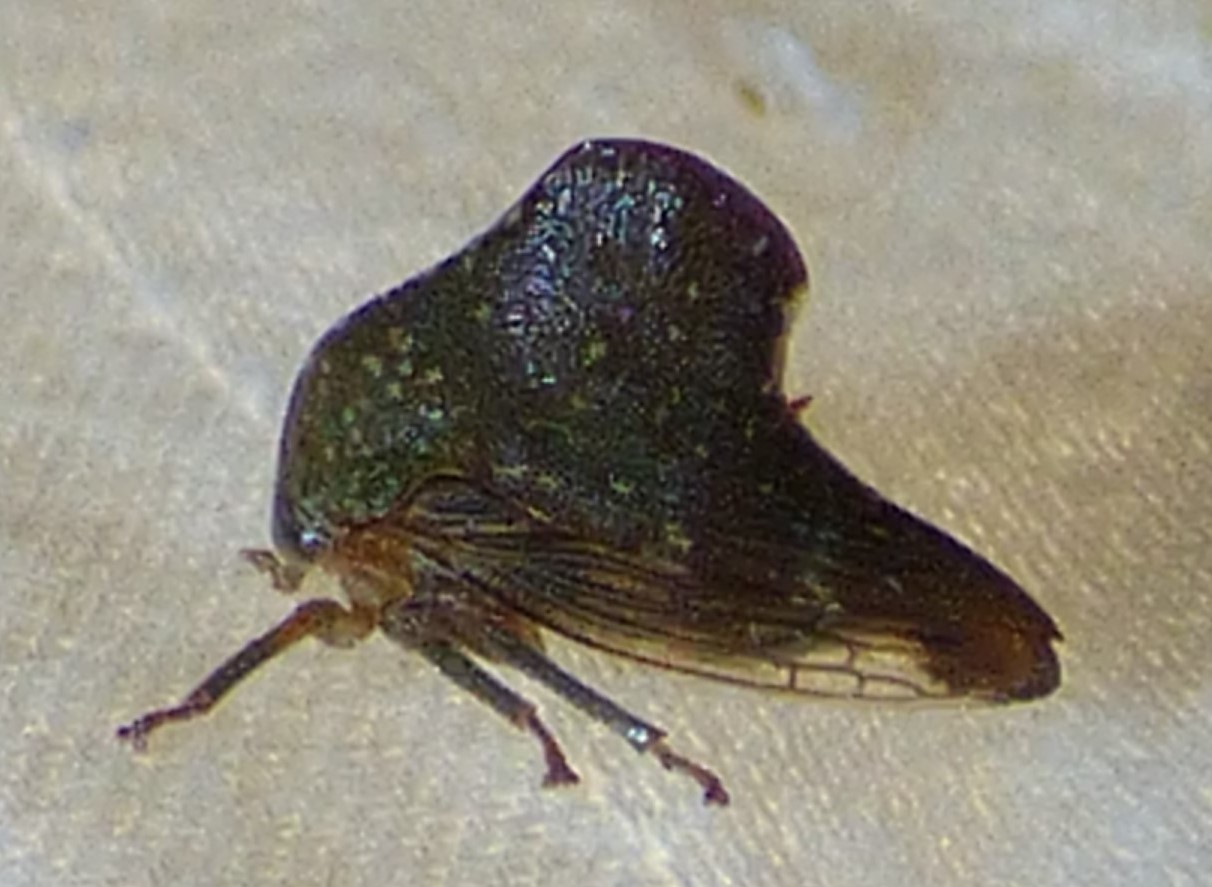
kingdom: Animalia
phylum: Arthropoda
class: Insecta
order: Hemiptera
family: Membracidae
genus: Telamona
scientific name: Telamona monticola
